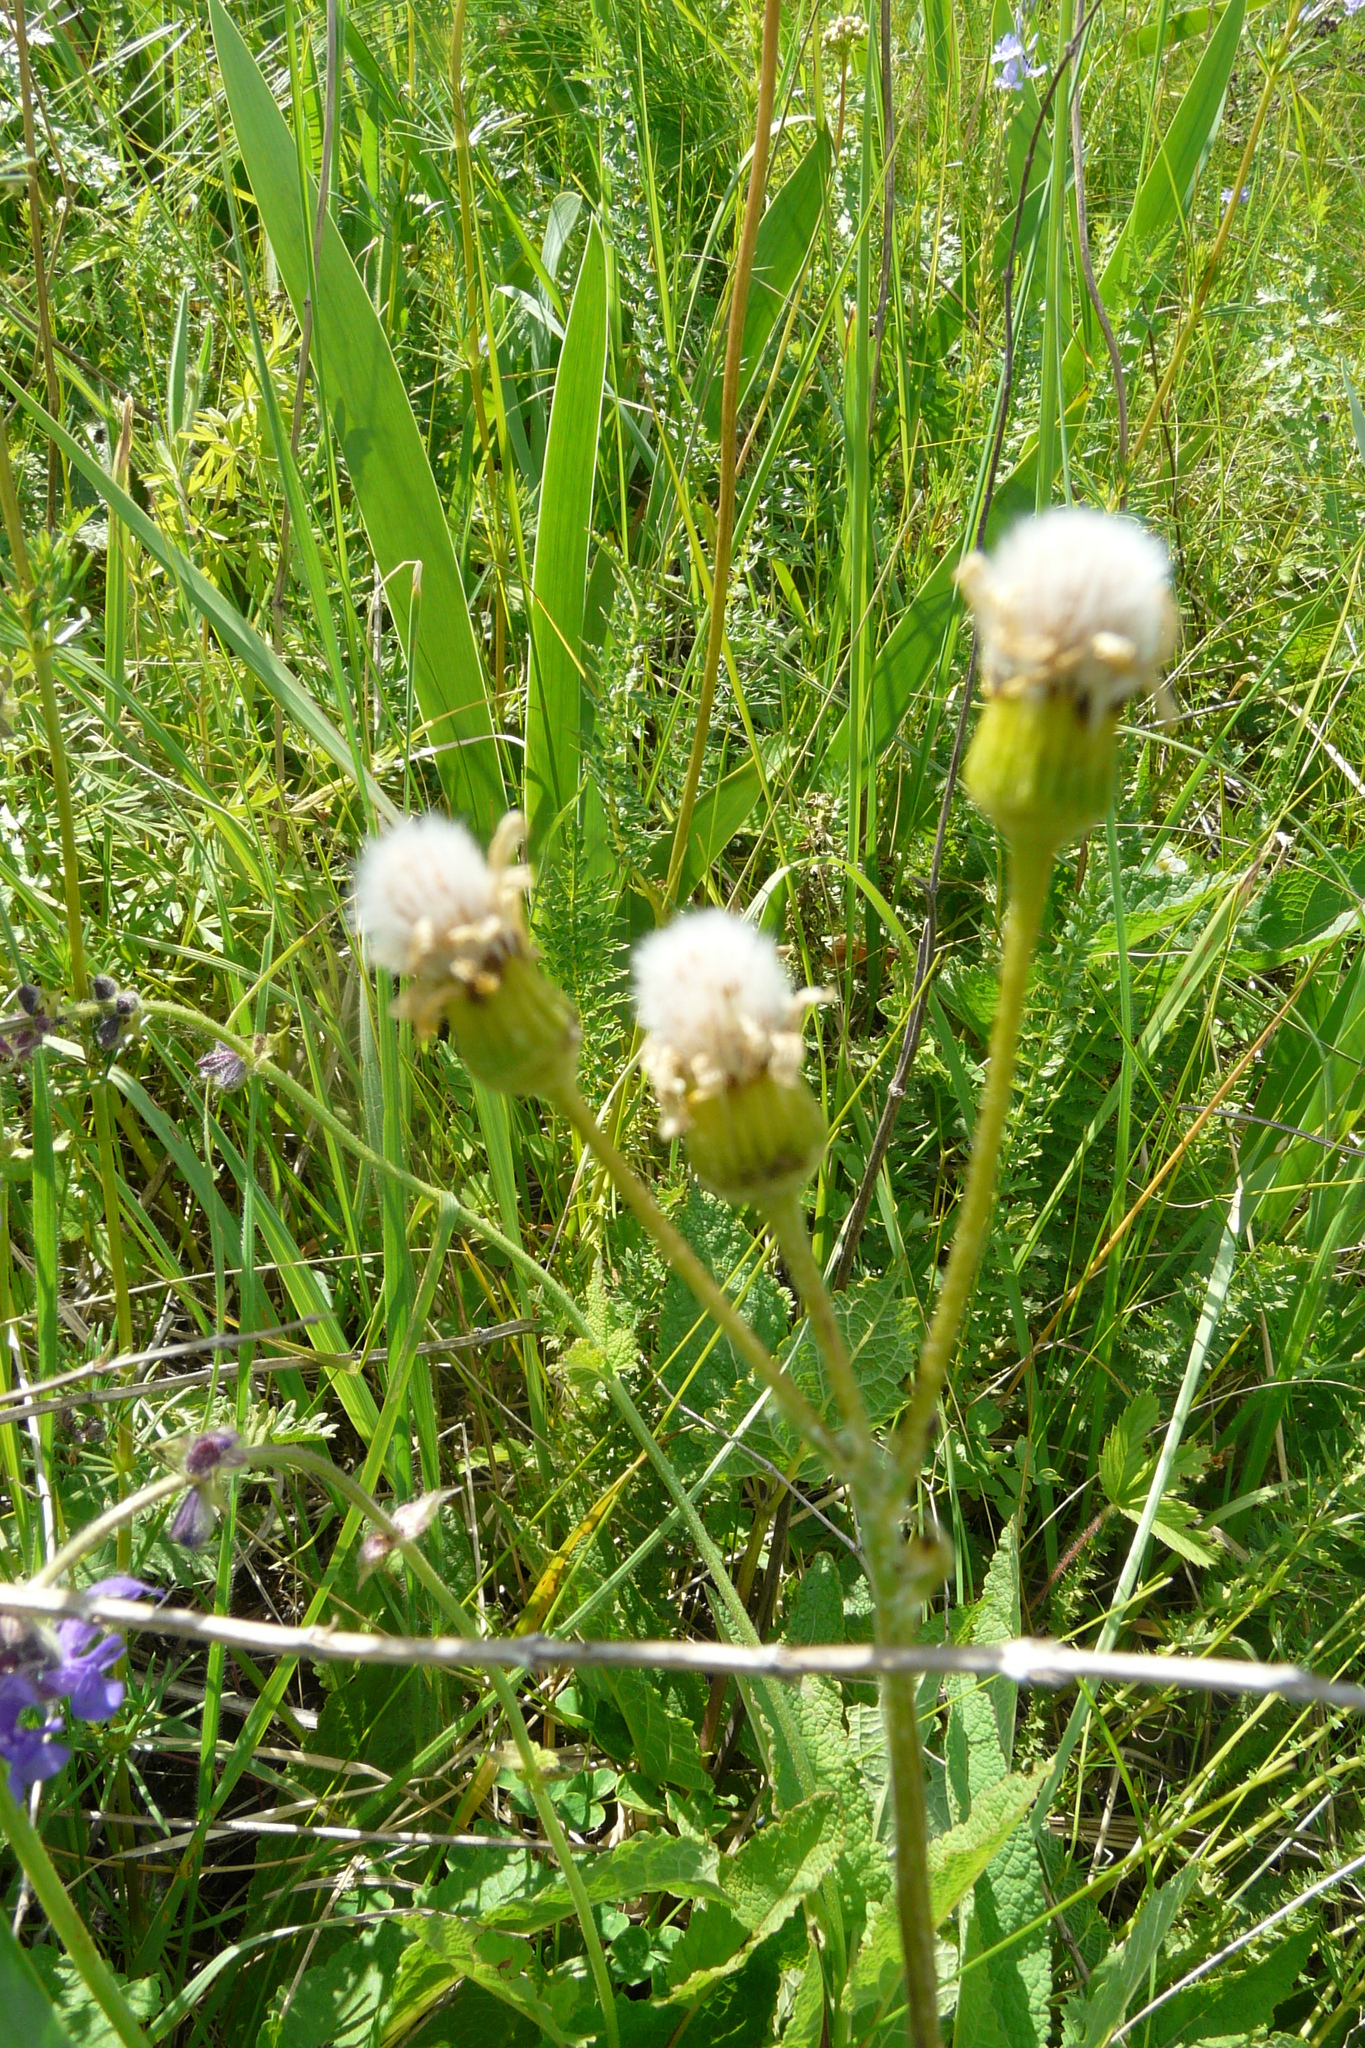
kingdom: Plantae
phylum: Tracheophyta
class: Magnoliopsida
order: Asterales
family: Asteraceae
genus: Erigeron
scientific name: Erigeron acris
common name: Blue fleabane
